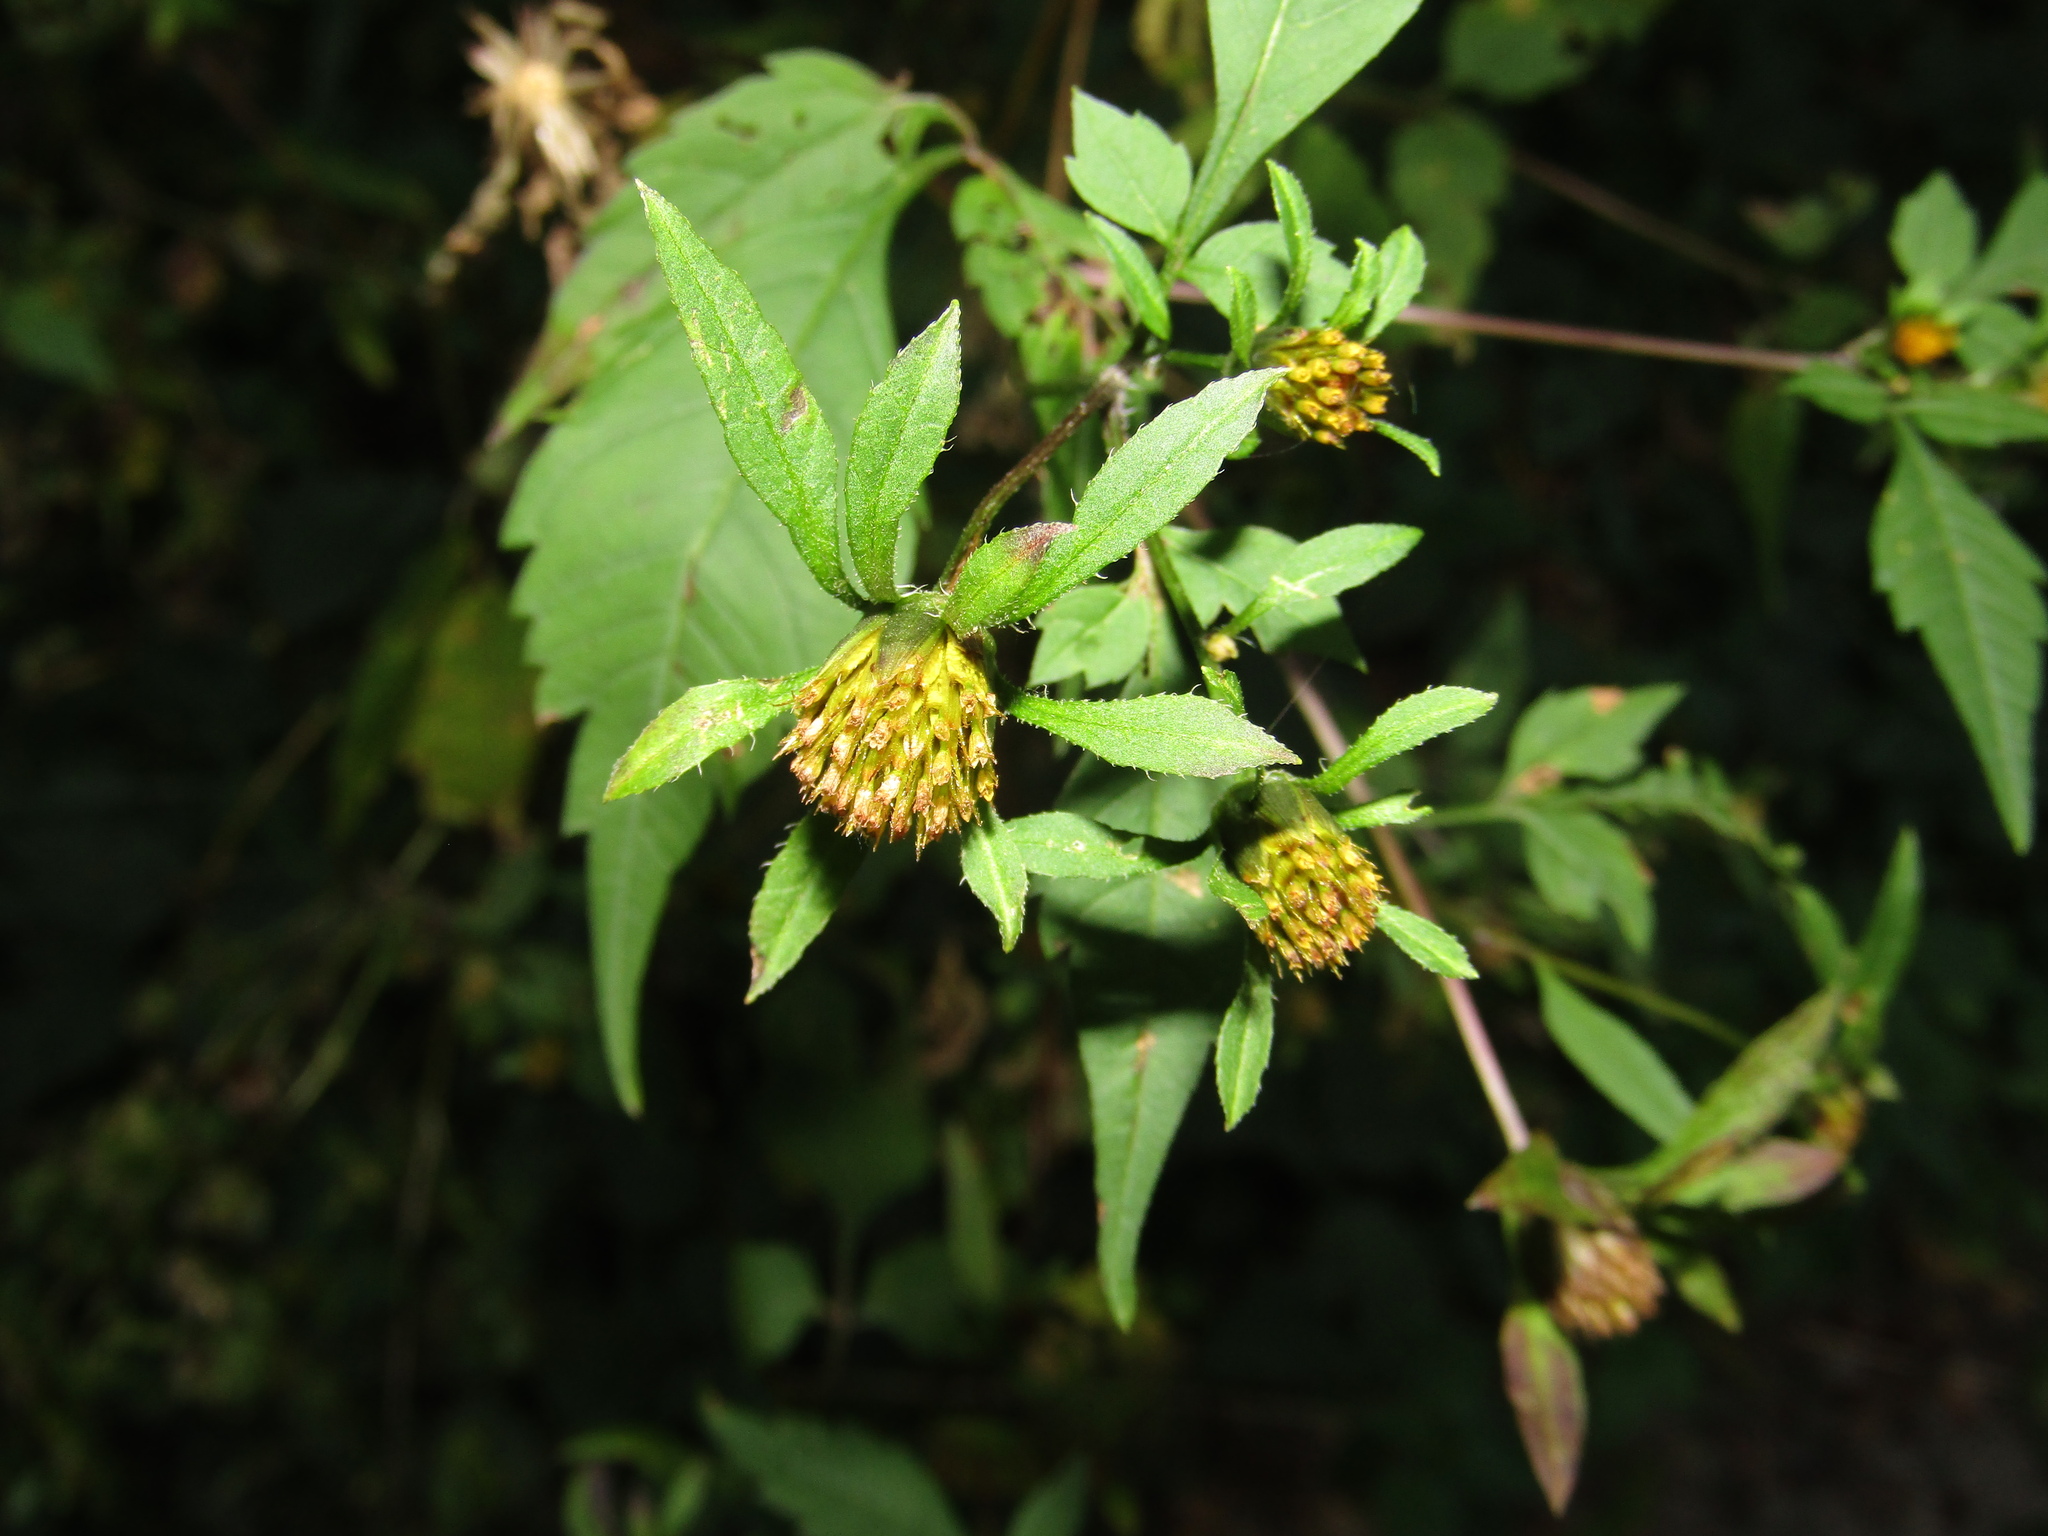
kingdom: Plantae
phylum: Tracheophyta
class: Magnoliopsida
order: Asterales
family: Asteraceae
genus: Bidens
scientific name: Bidens frondosa
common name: Beggarticks
